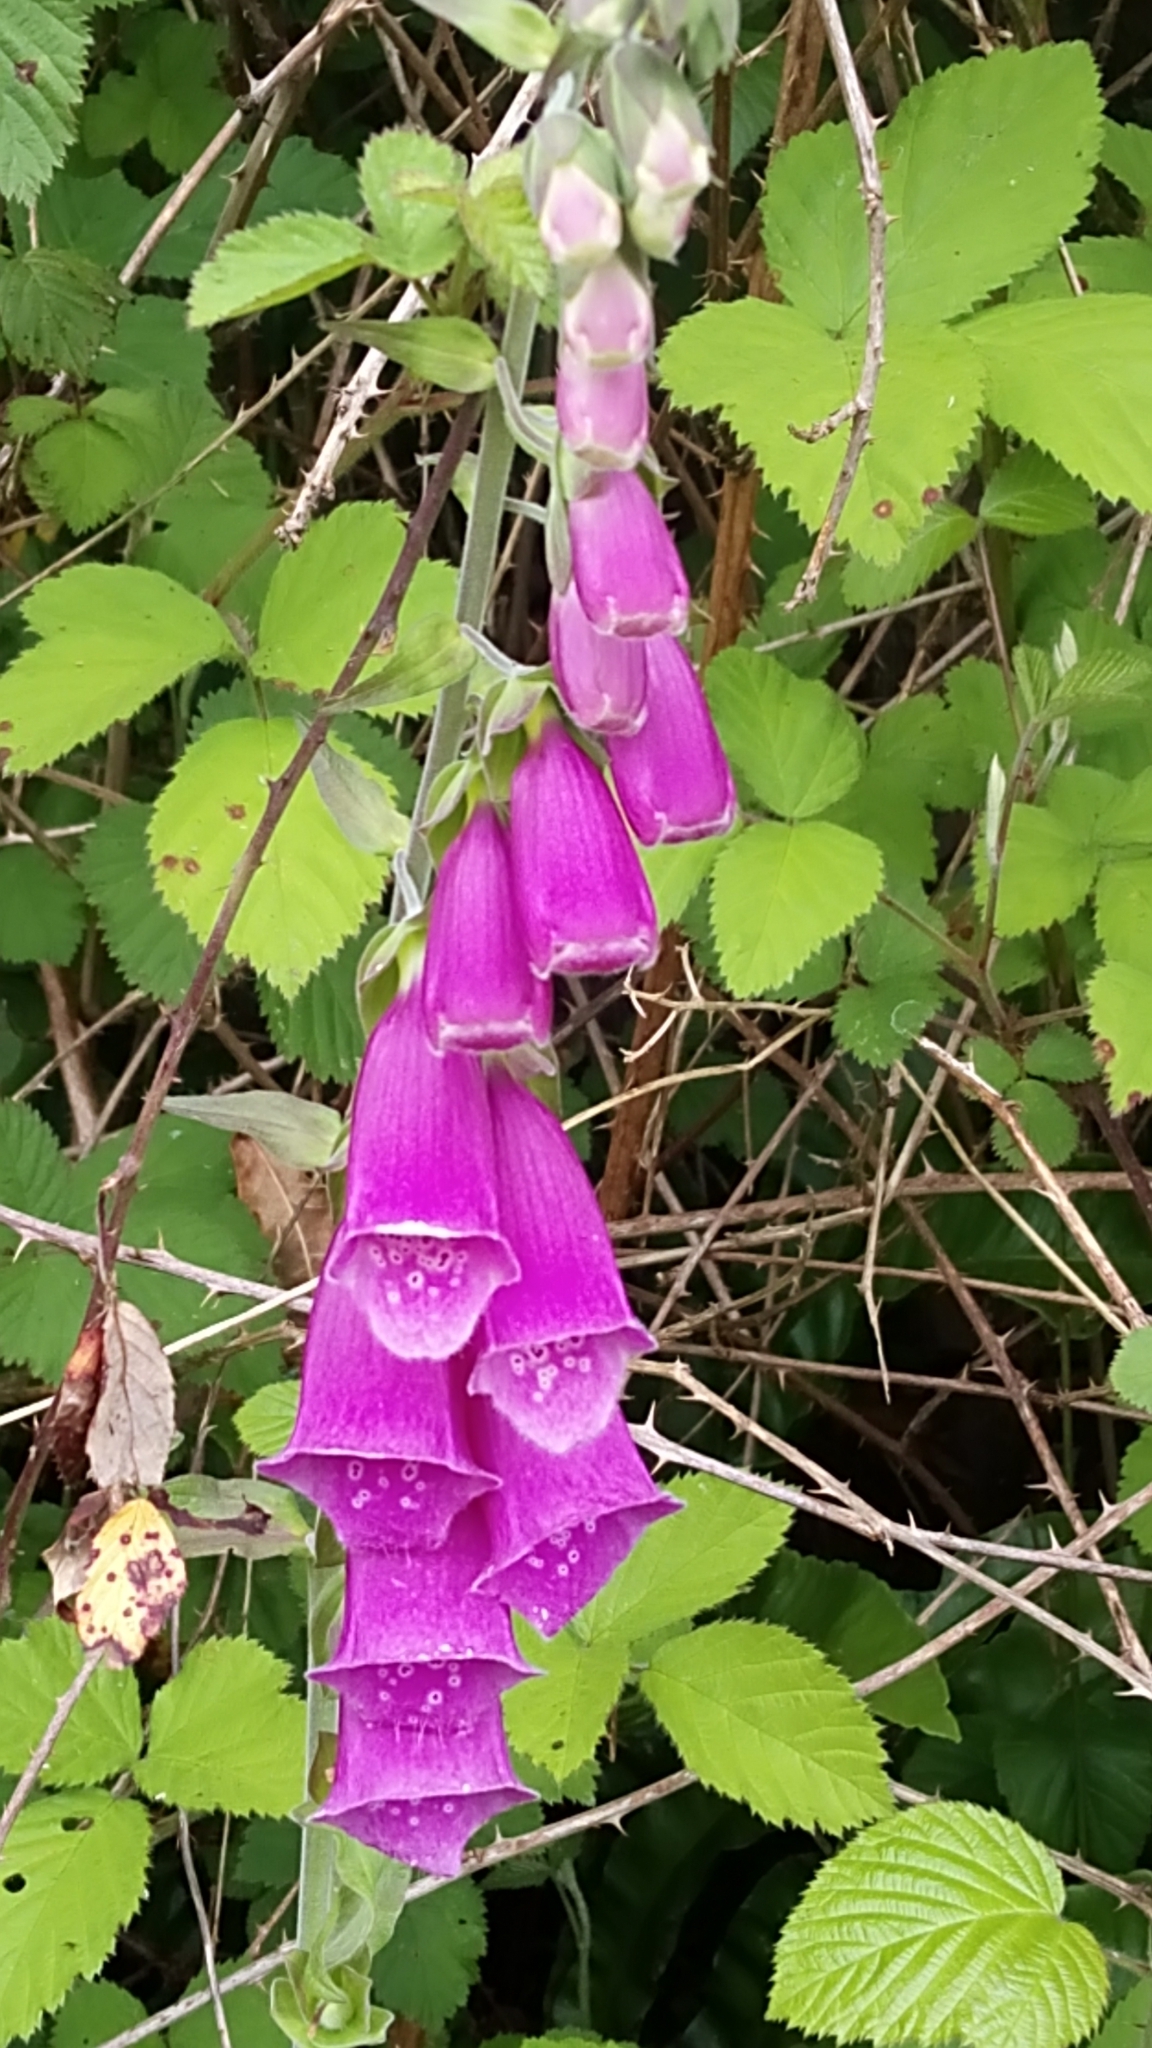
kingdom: Plantae
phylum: Tracheophyta
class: Magnoliopsida
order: Lamiales
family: Plantaginaceae
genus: Digitalis
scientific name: Digitalis purpurea
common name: Foxglove
